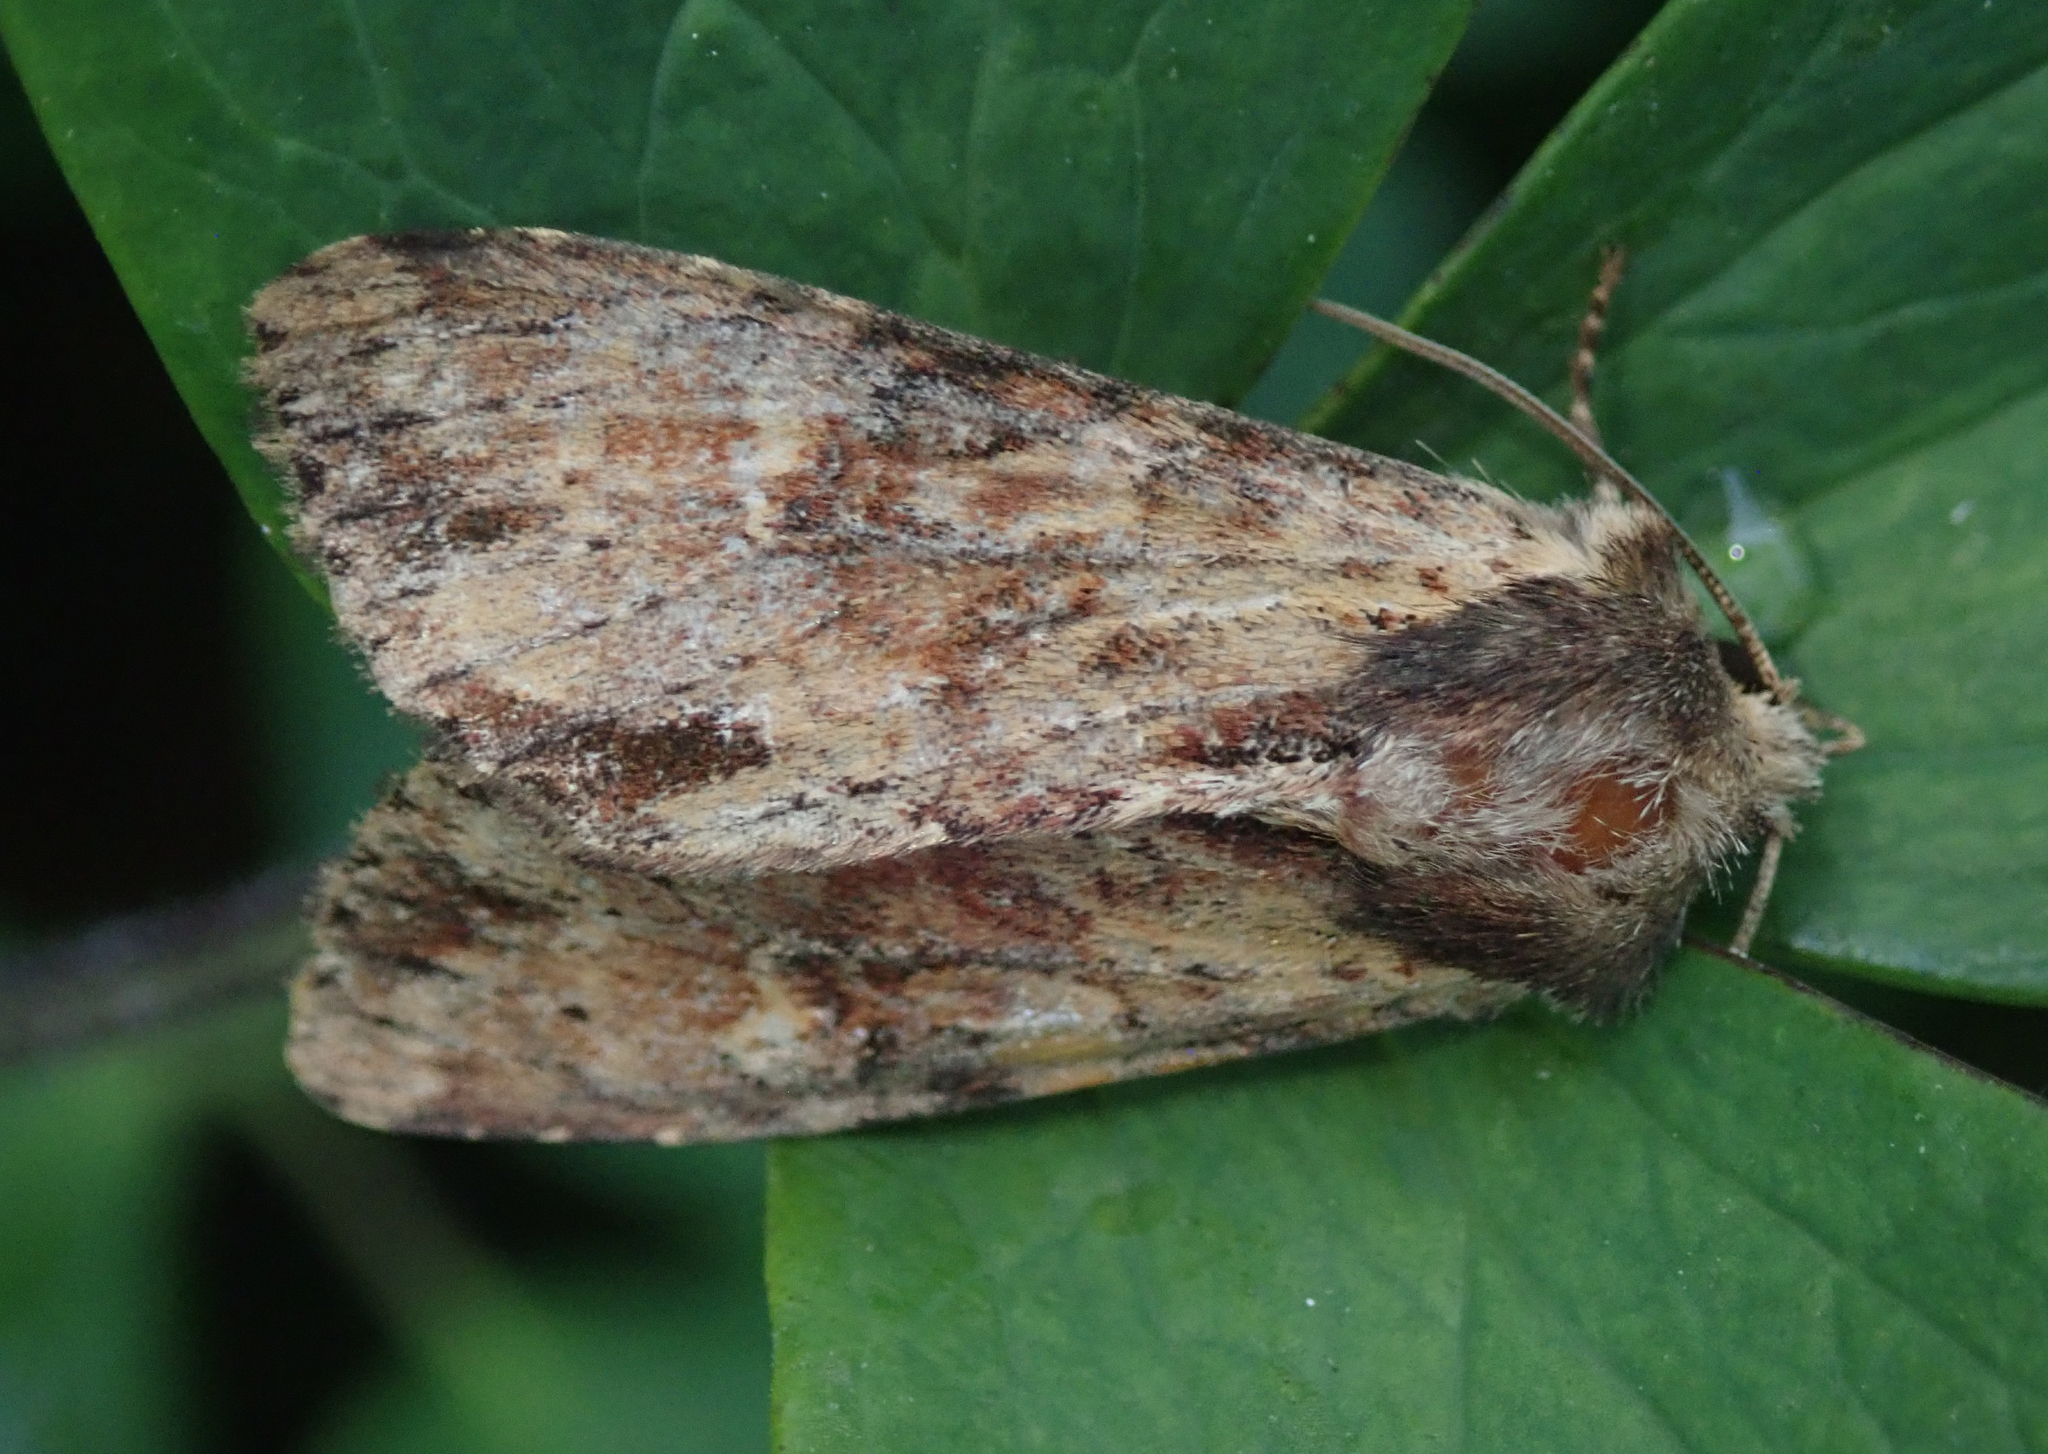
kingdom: Animalia
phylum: Arthropoda
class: Insecta
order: Lepidoptera
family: Noctuidae
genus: Apamea
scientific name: Apamea crenata
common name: Clouded-bordered brindle
